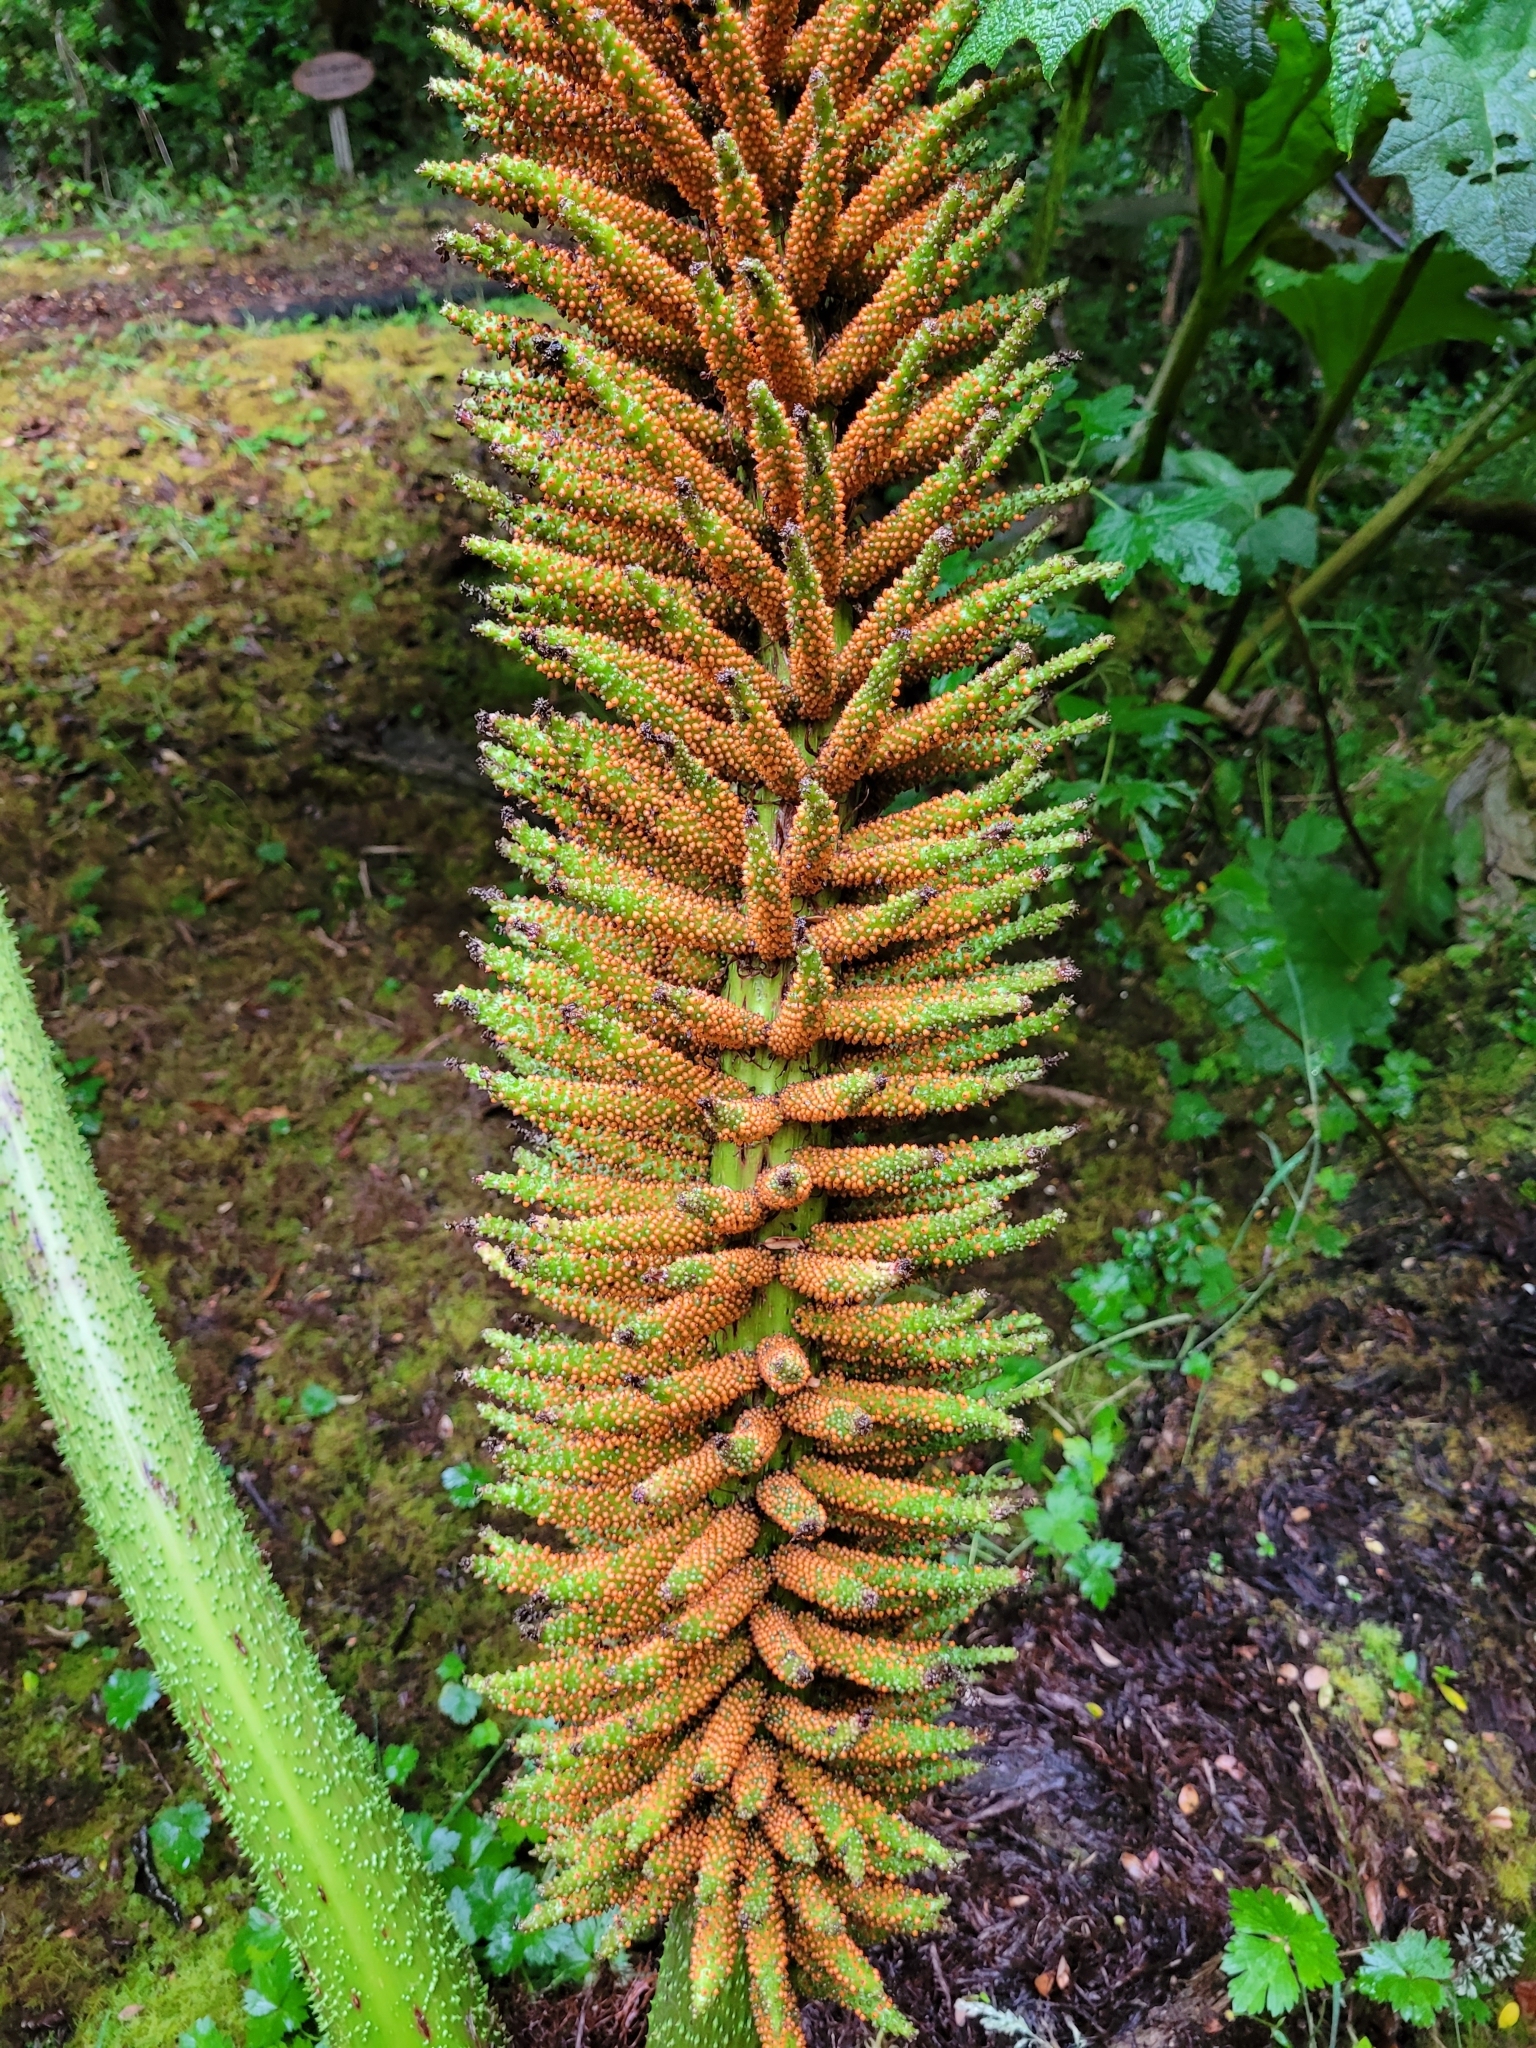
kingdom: Plantae
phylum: Tracheophyta
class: Magnoliopsida
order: Gunnerales
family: Gunneraceae
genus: Gunnera
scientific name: Gunnera tinctoria
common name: Giant-rhubarb
